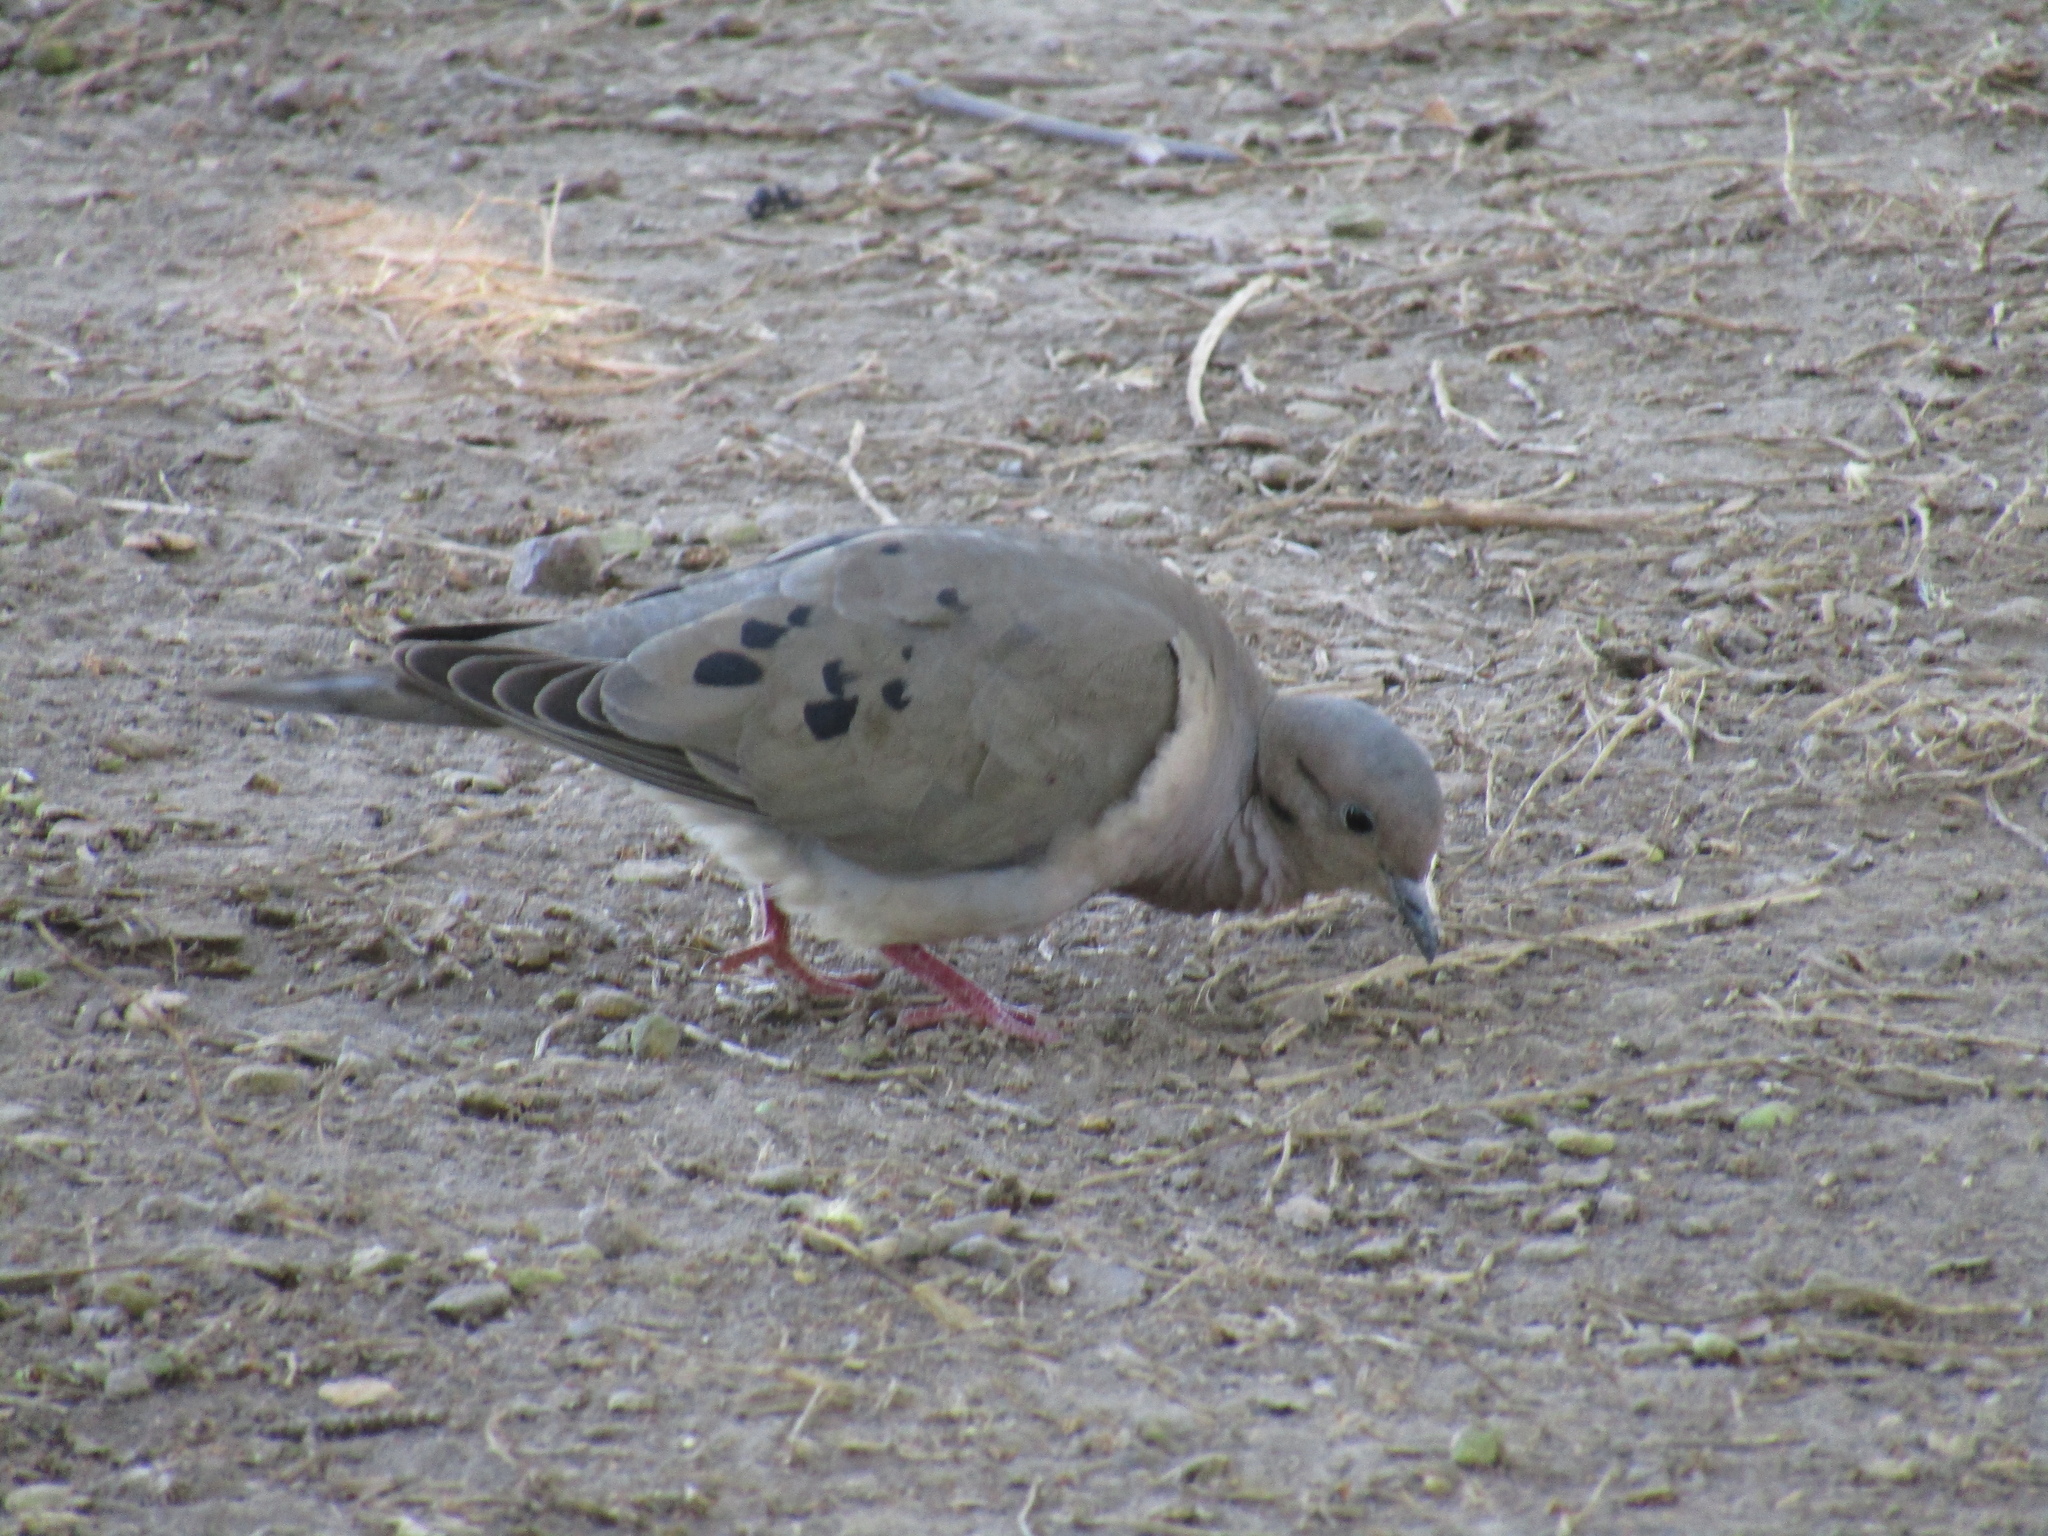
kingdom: Animalia
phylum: Chordata
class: Aves
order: Columbiformes
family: Columbidae
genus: Zenaida
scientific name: Zenaida auriculata
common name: Eared dove
